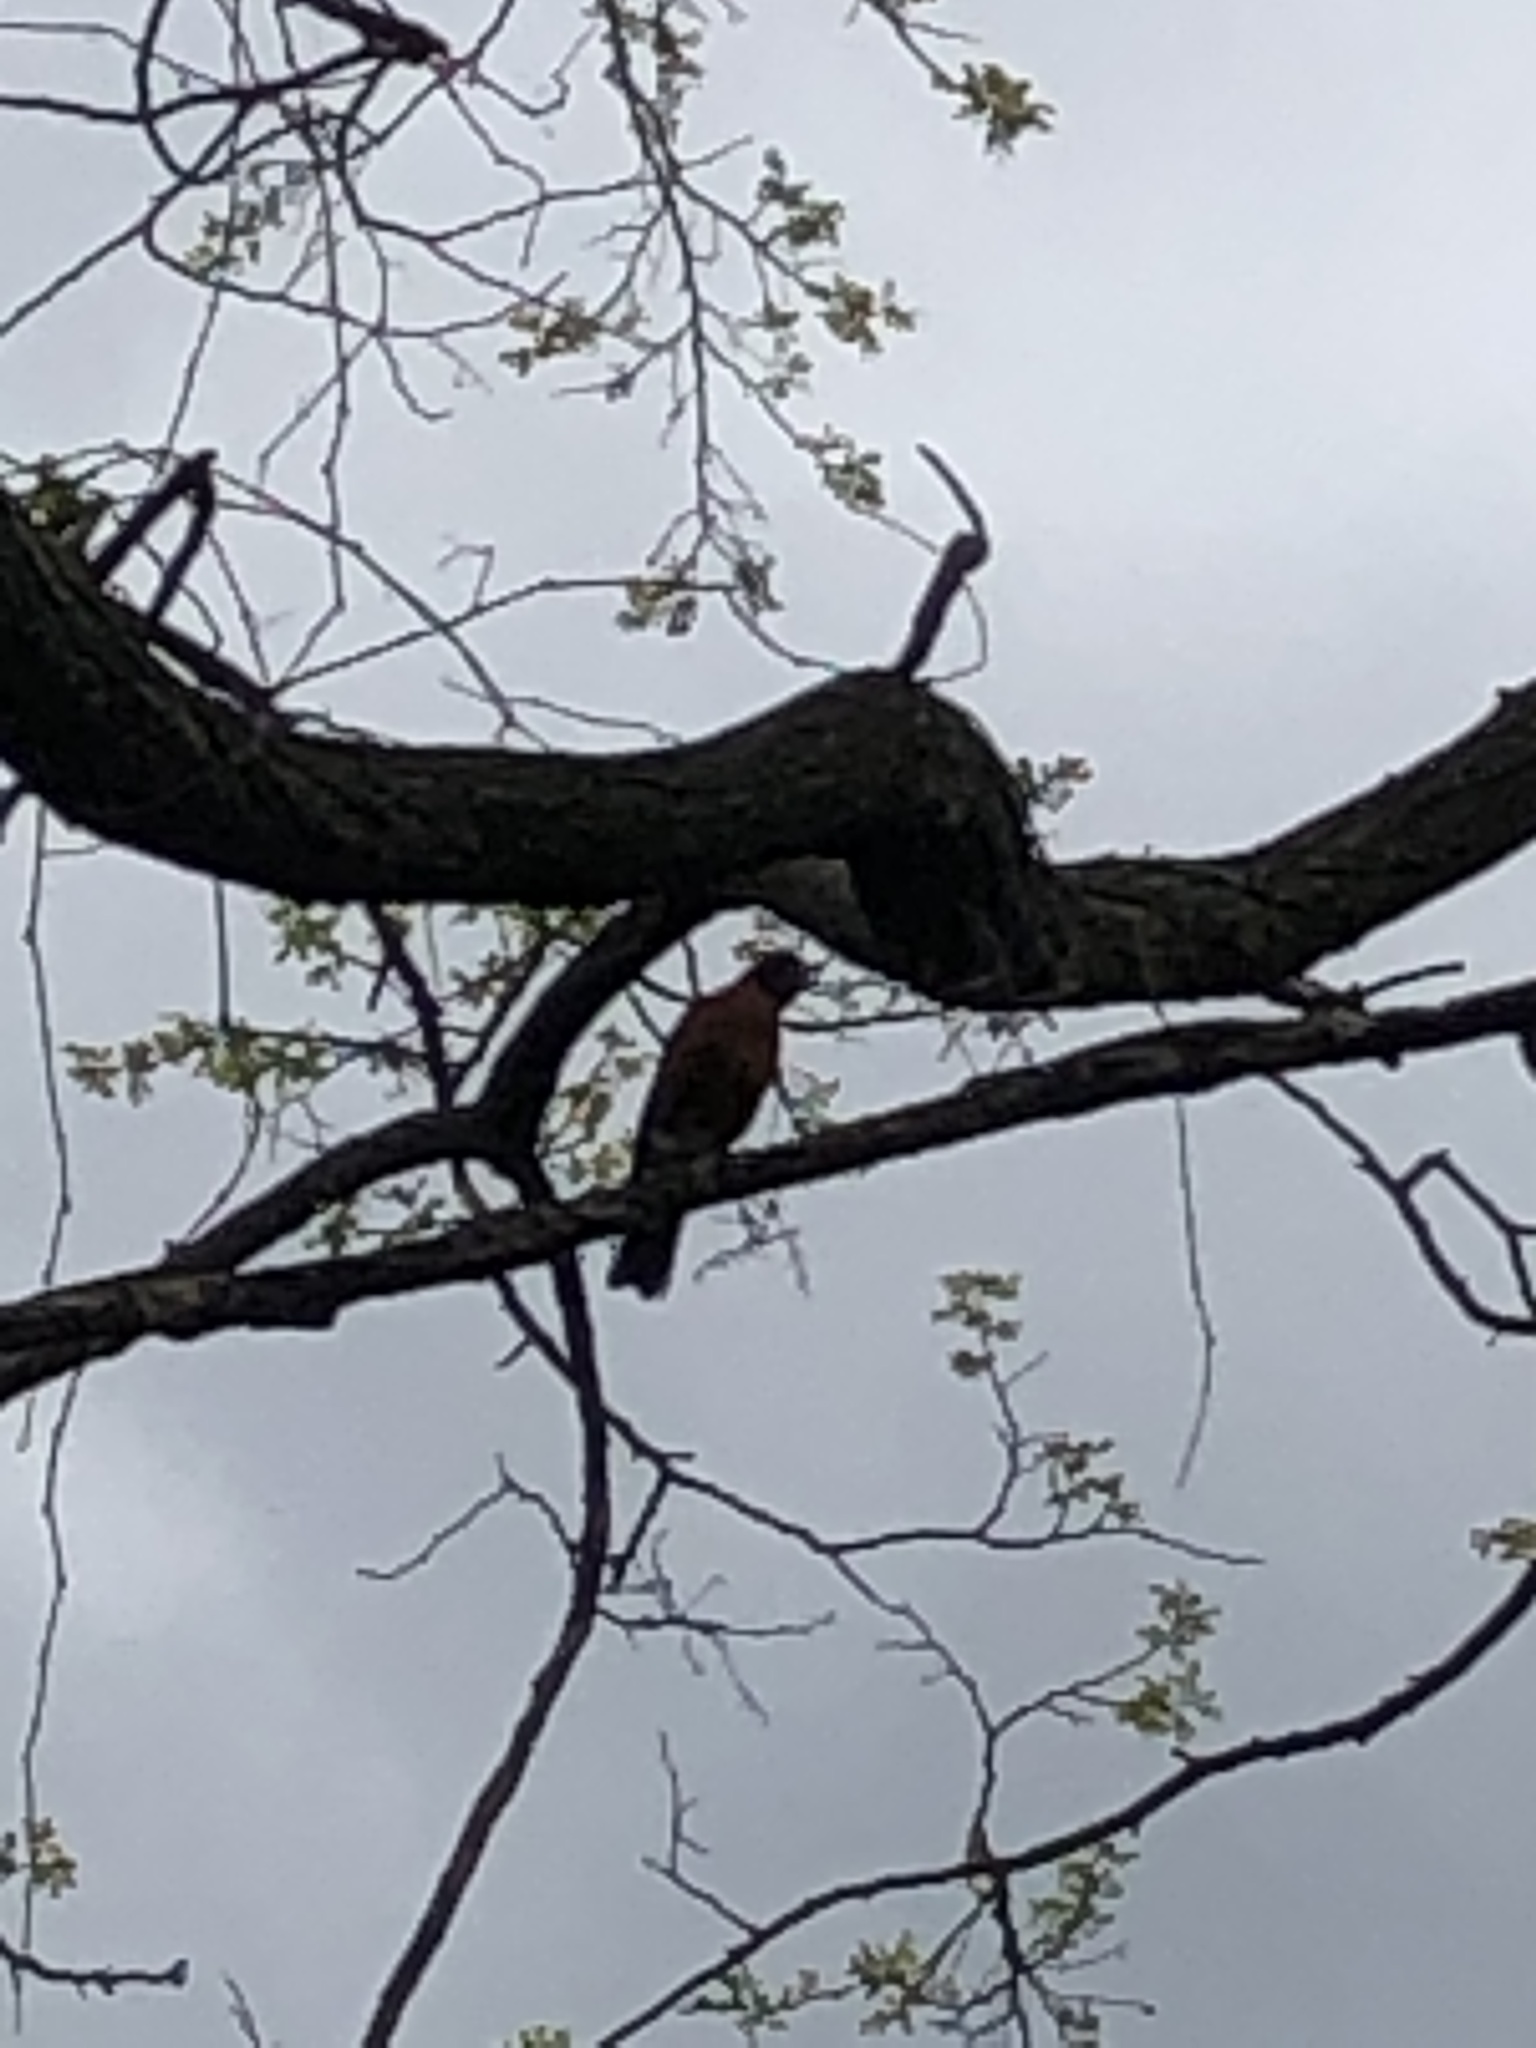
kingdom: Animalia
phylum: Chordata
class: Aves
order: Passeriformes
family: Turdidae
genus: Turdus
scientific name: Turdus migratorius
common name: American robin
